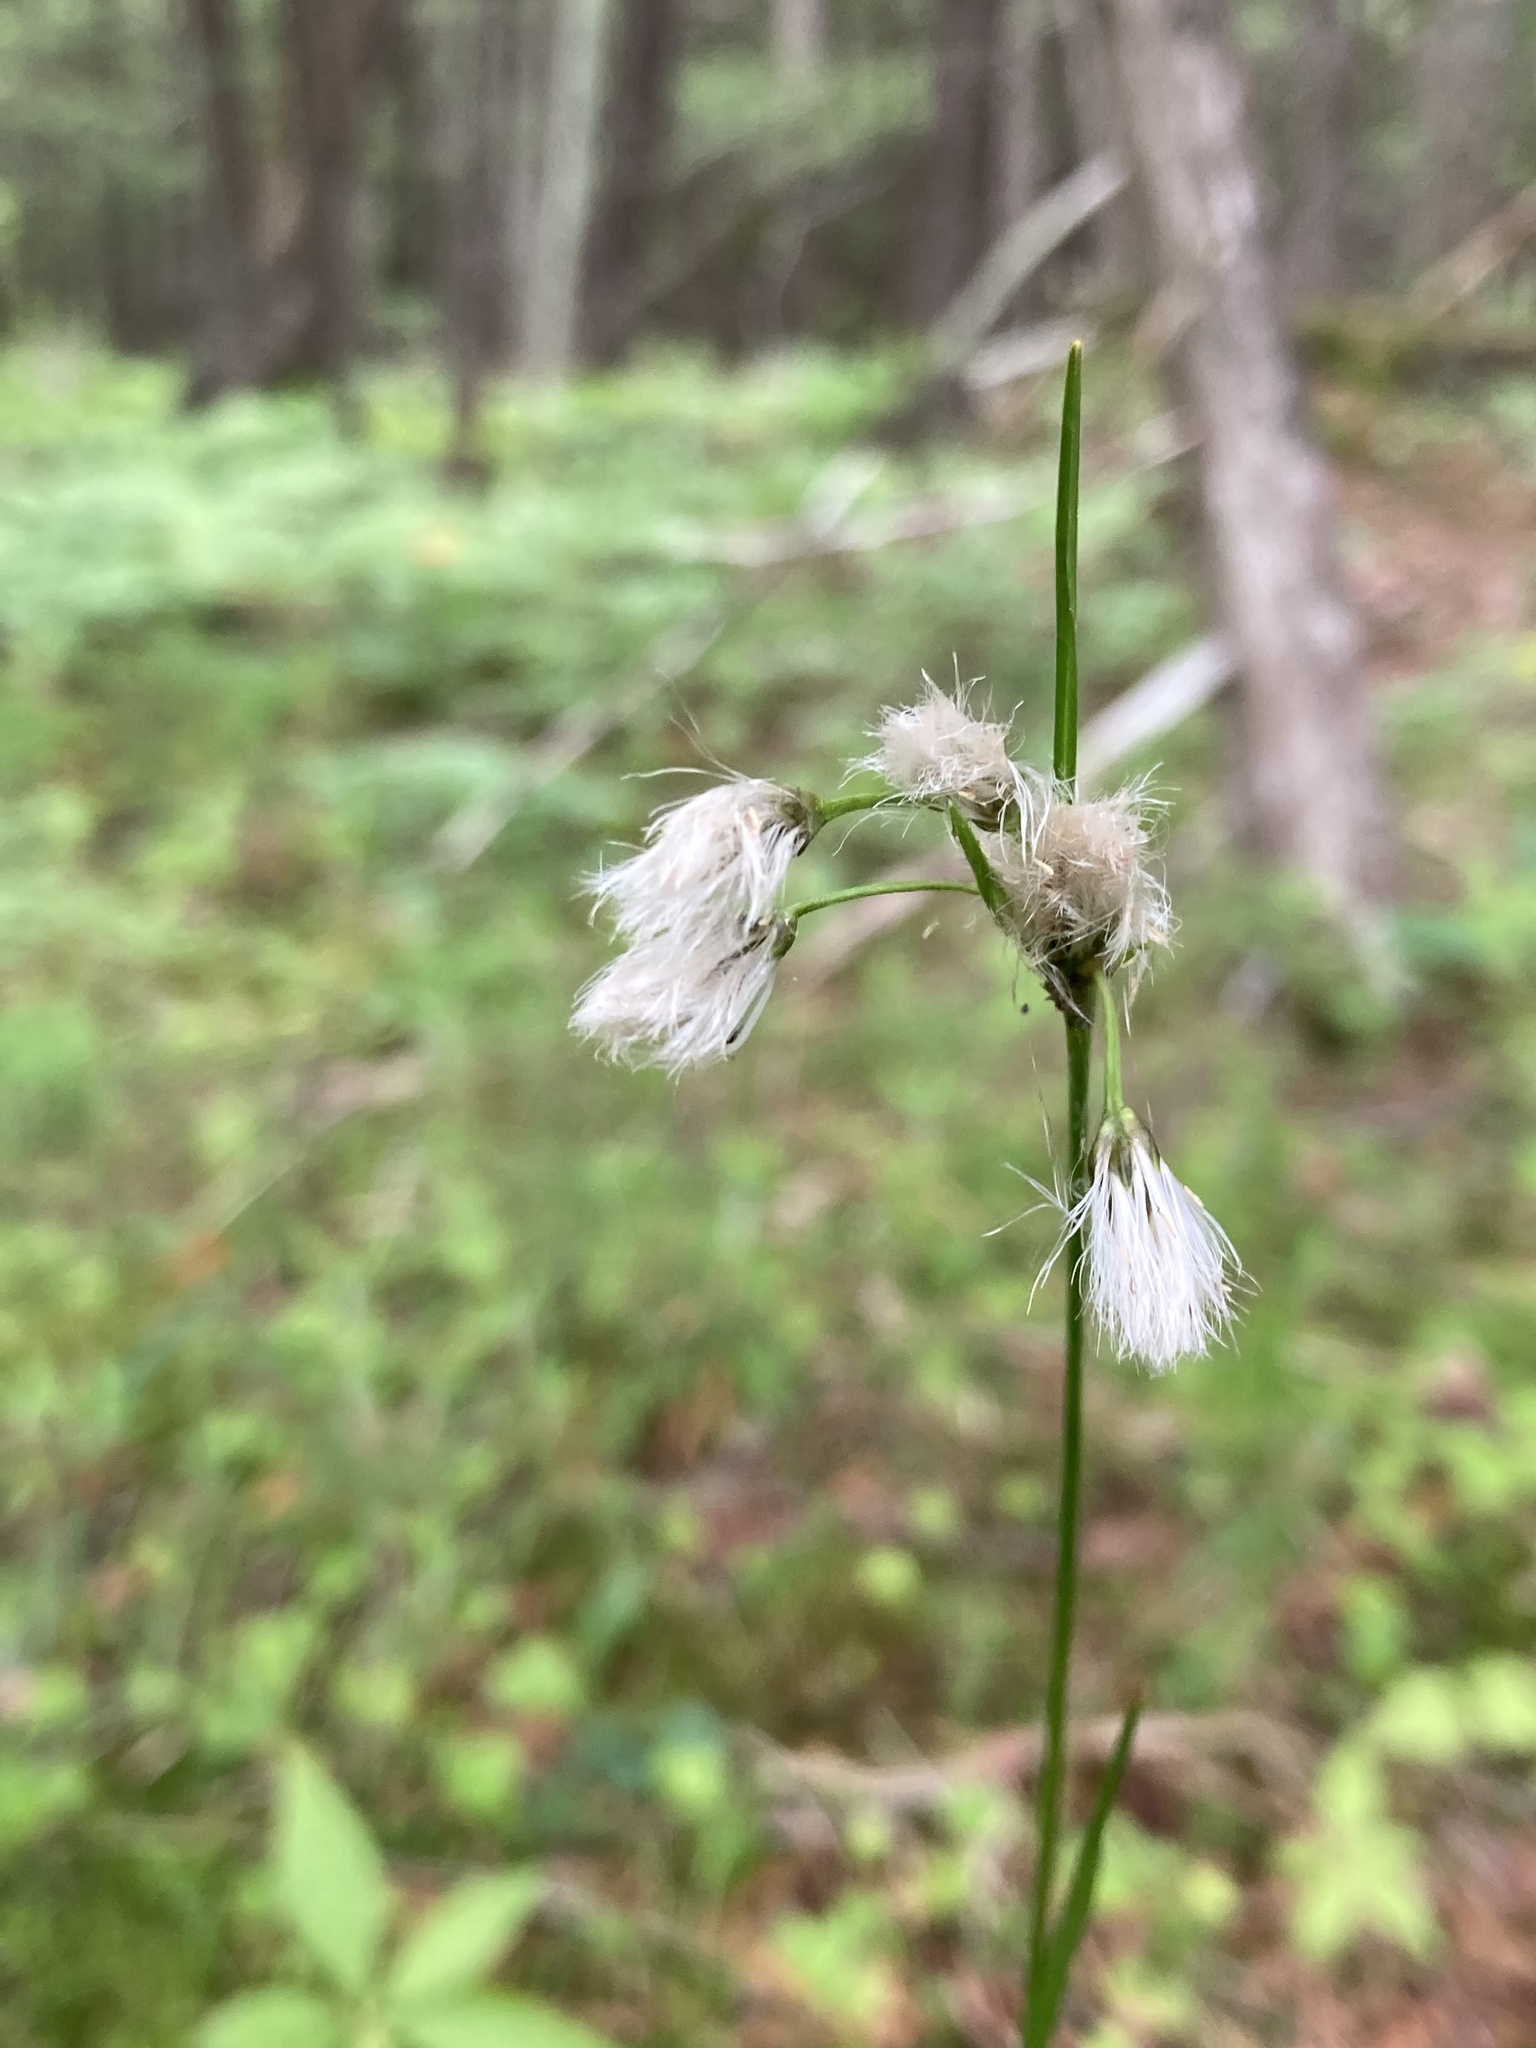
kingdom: Plantae
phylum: Tracheophyta
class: Liliopsida
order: Poales
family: Cyperaceae
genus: Eriophorum
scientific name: Eriophorum viridicarinatum
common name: Green-keeled cottongrass
